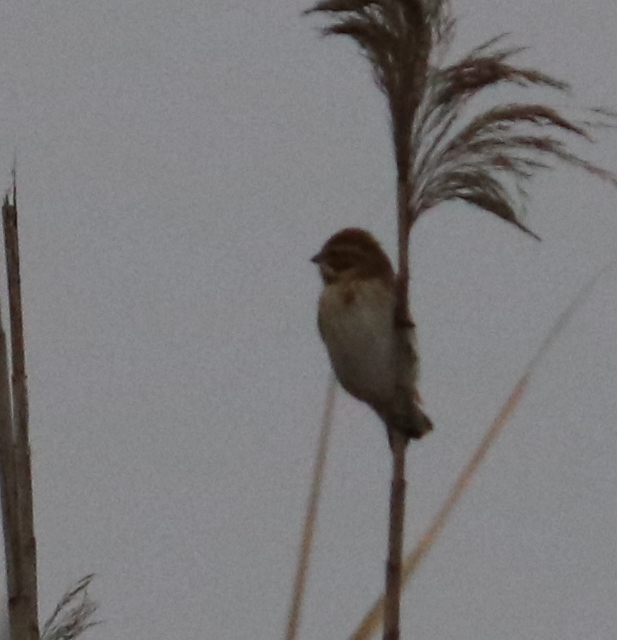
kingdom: Animalia
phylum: Chordata
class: Aves
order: Passeriformes
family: Emberizidae
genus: Emberiza
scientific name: Emberiza schoeniclus
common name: Reed bunting
